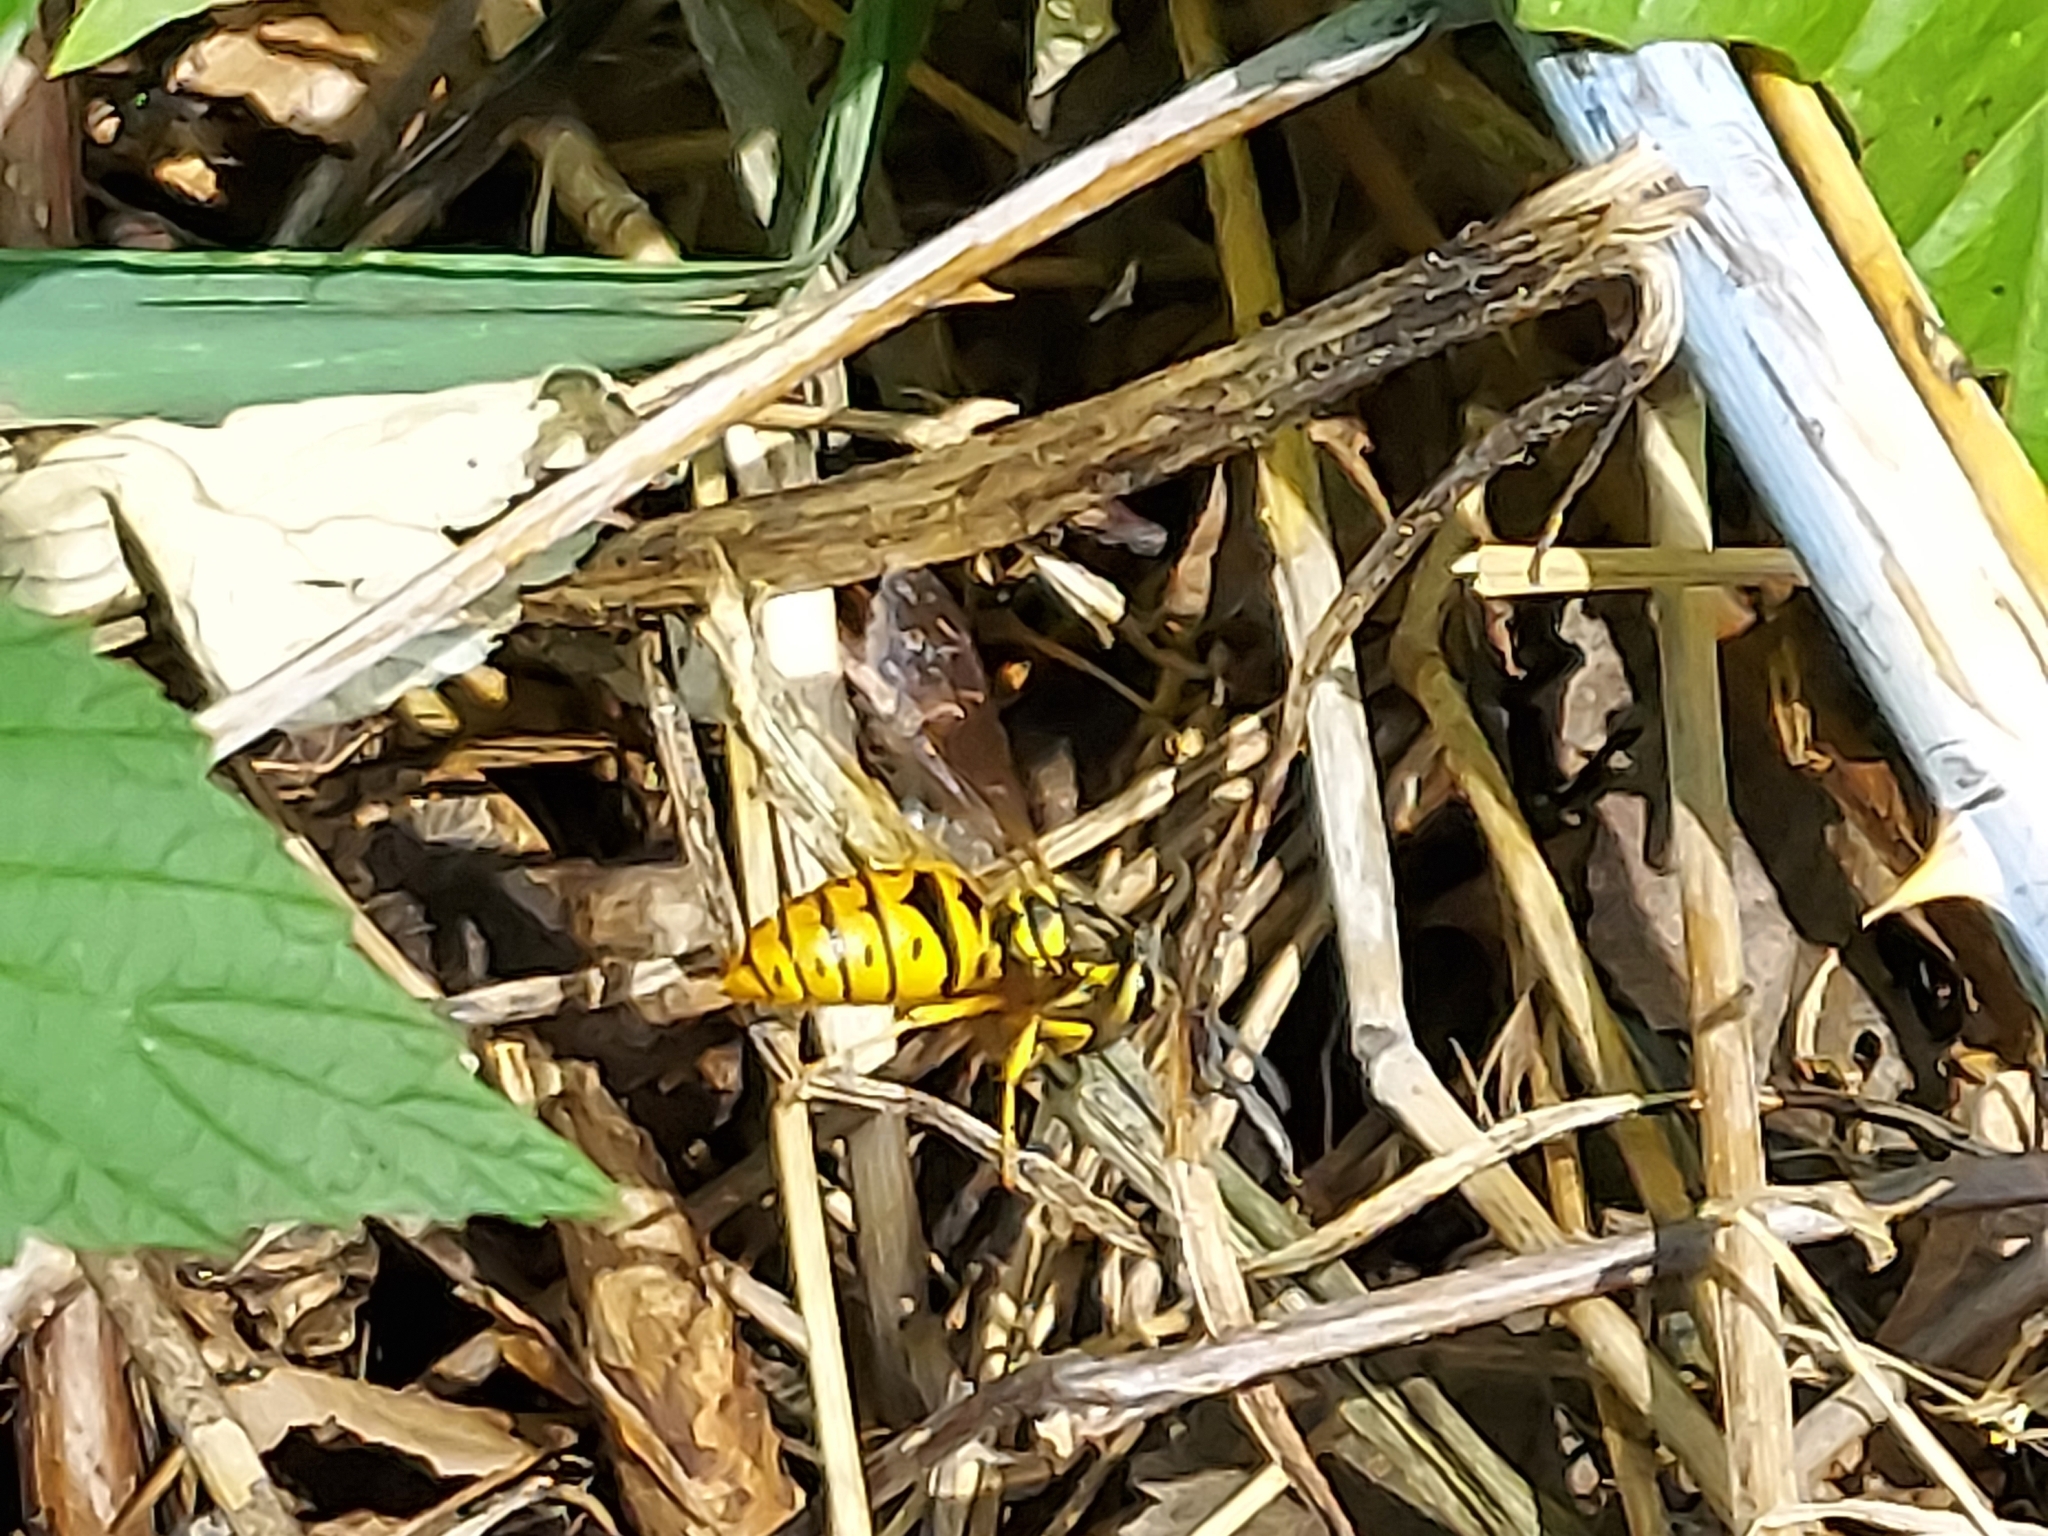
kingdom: Animalia
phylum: Arthropoda
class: Insecta
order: Hymenoptera
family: Vespidae
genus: Vespula
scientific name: Vespula maculifrons
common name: Eastern yellowjacket
